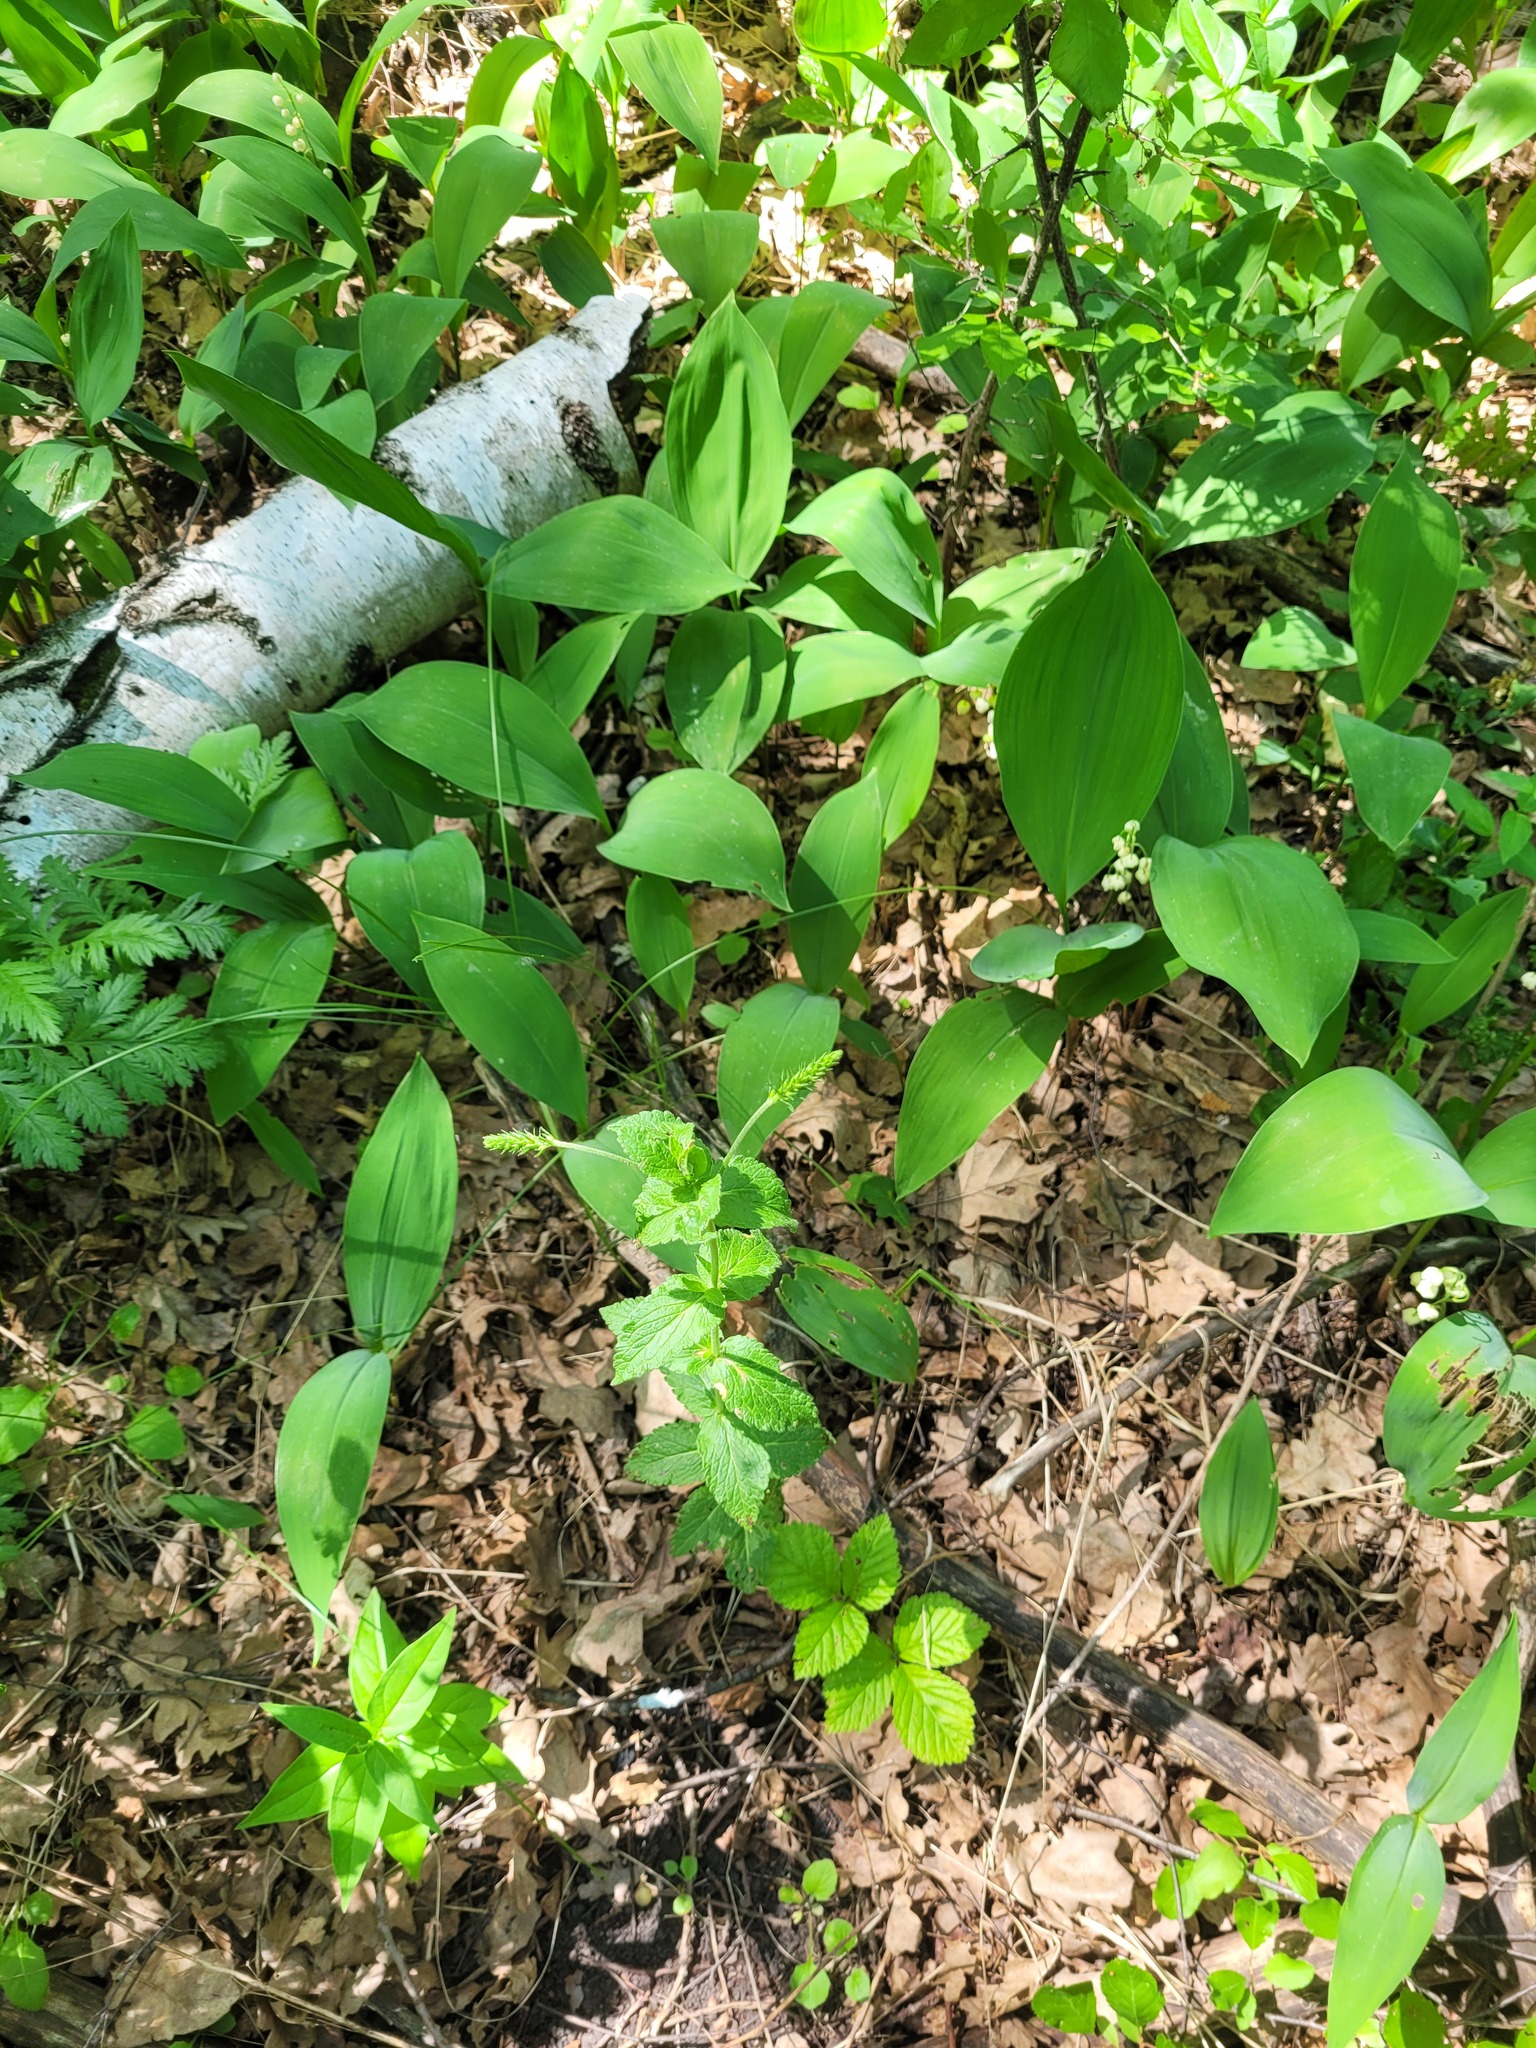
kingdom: Plantae
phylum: Tracheophyta
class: Magnoliopsida
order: Lamiales
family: Plantaginaceae
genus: Veronica
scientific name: Veronica teucrium
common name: Large speedwell
